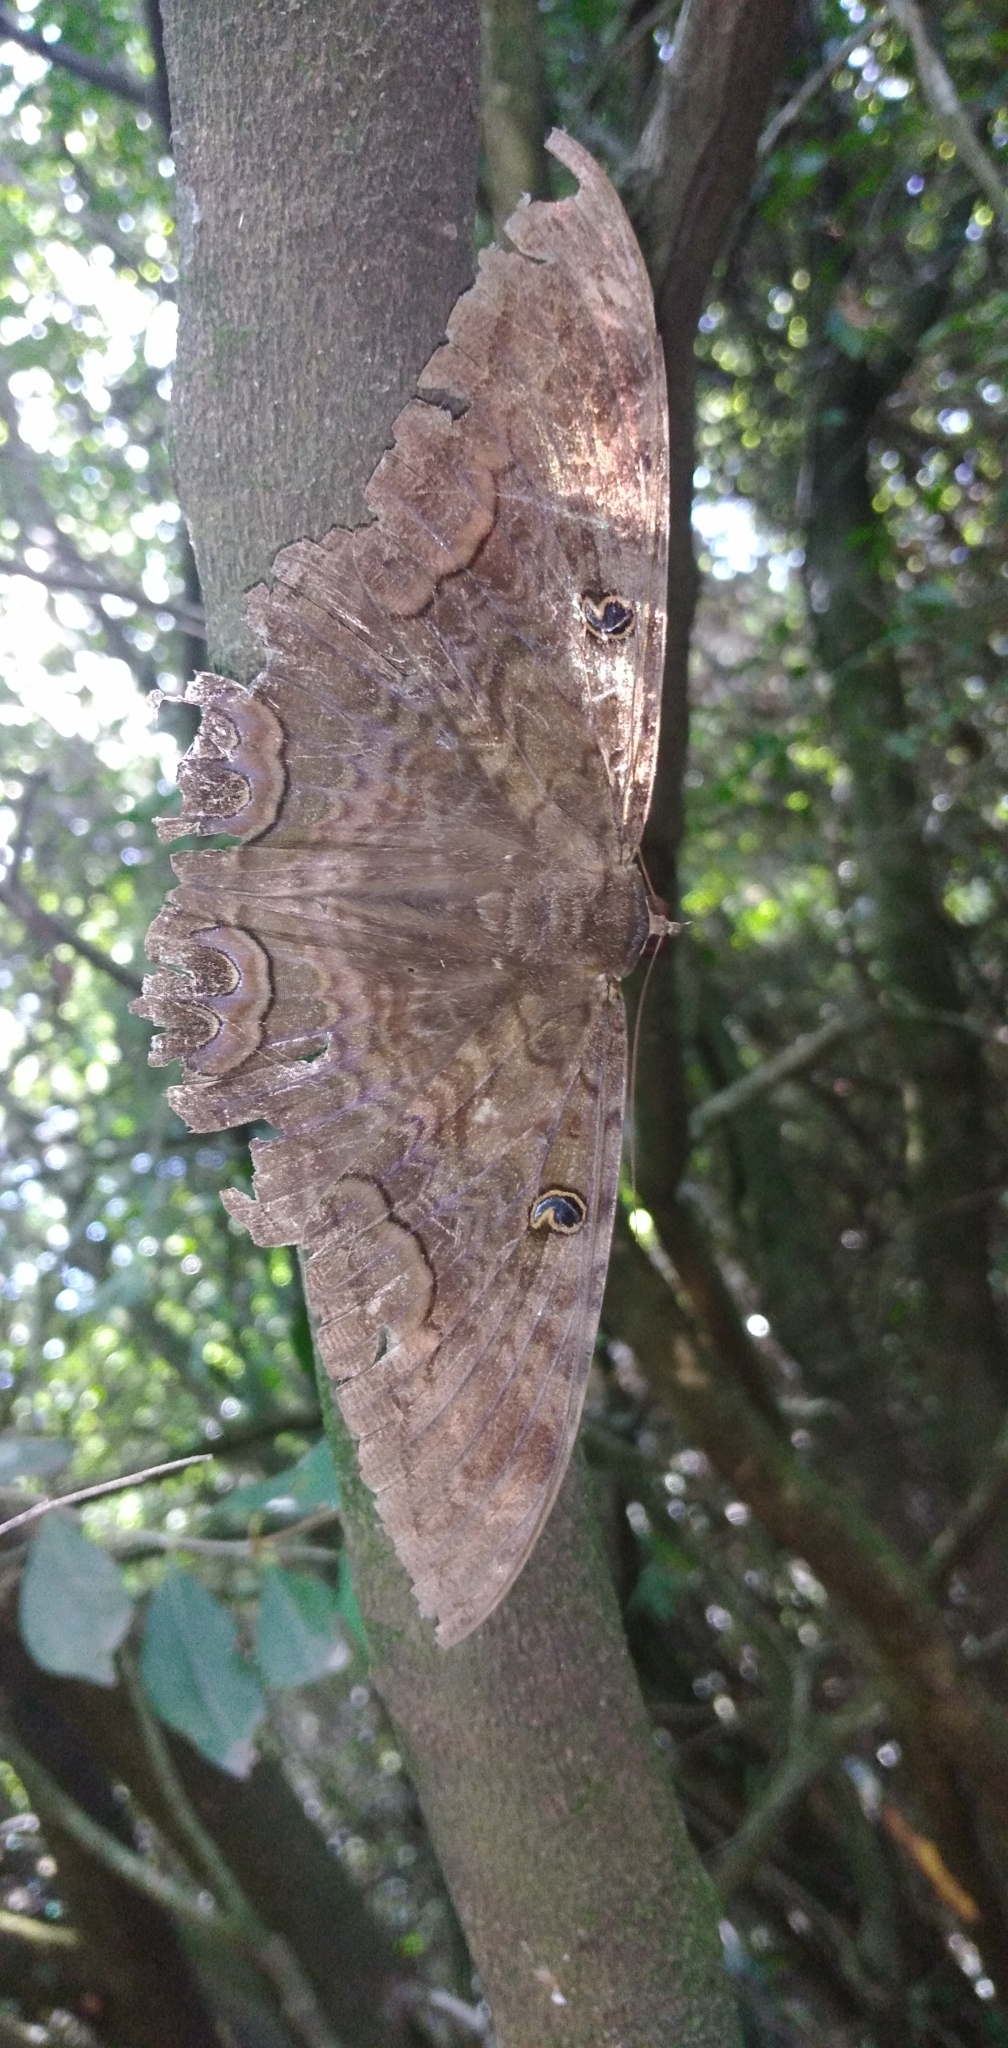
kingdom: Animalia
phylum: Arthropoda
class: Insecta
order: Lepidoptera
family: Erebidae
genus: Ascalapha
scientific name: Ascalapha odorata
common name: Black witch
